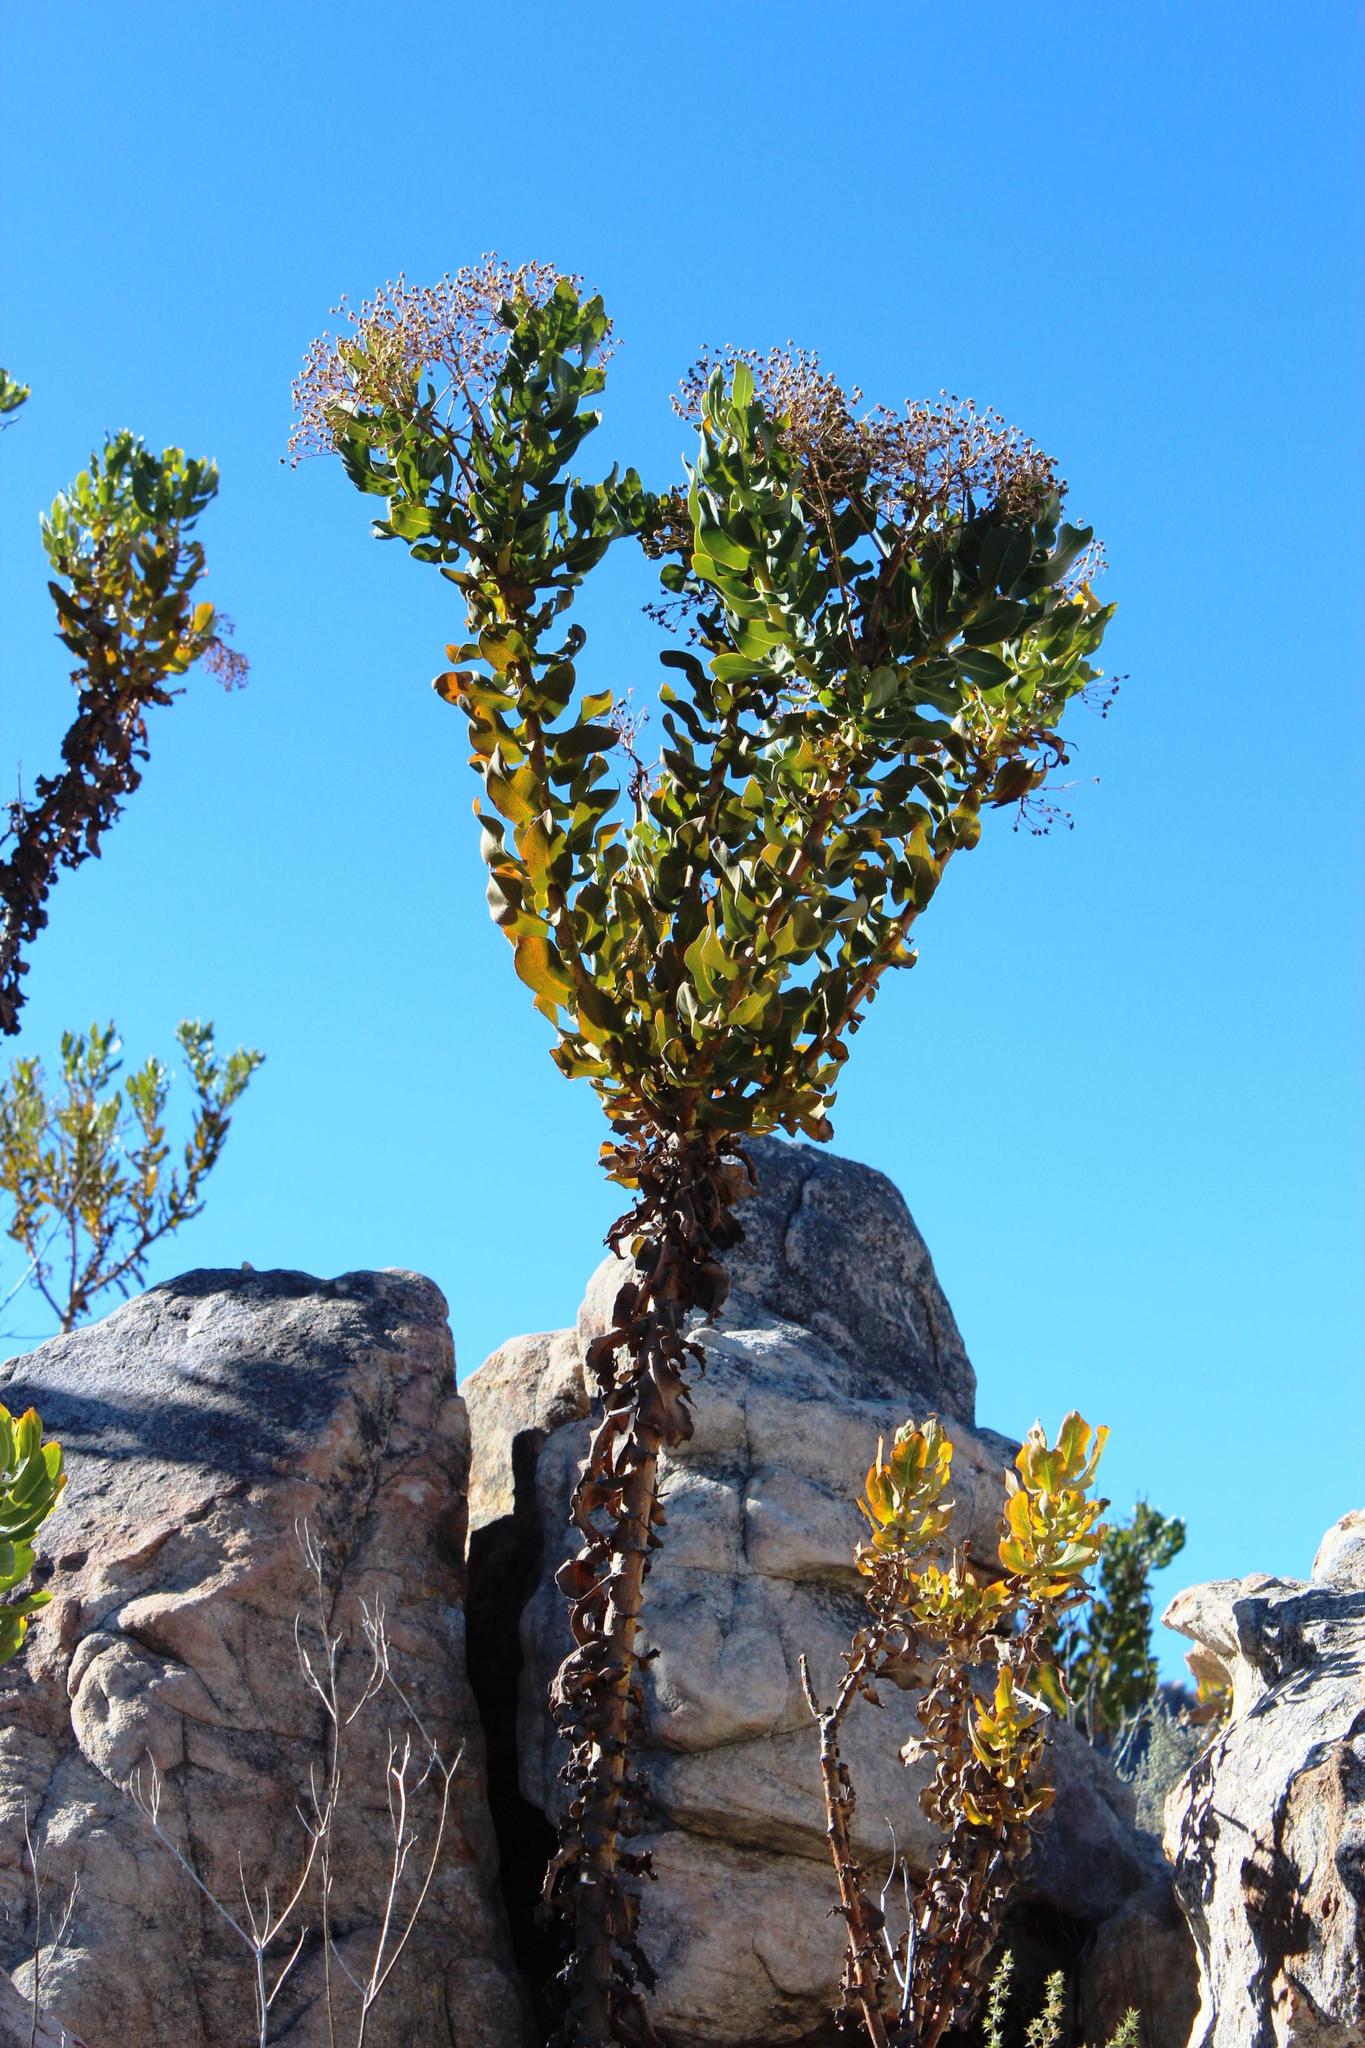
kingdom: Plantae
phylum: Tracheophyta
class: Magnoliopsida
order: Asterales
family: Asteraceae
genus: Othonna
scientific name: Othonna parviflora
